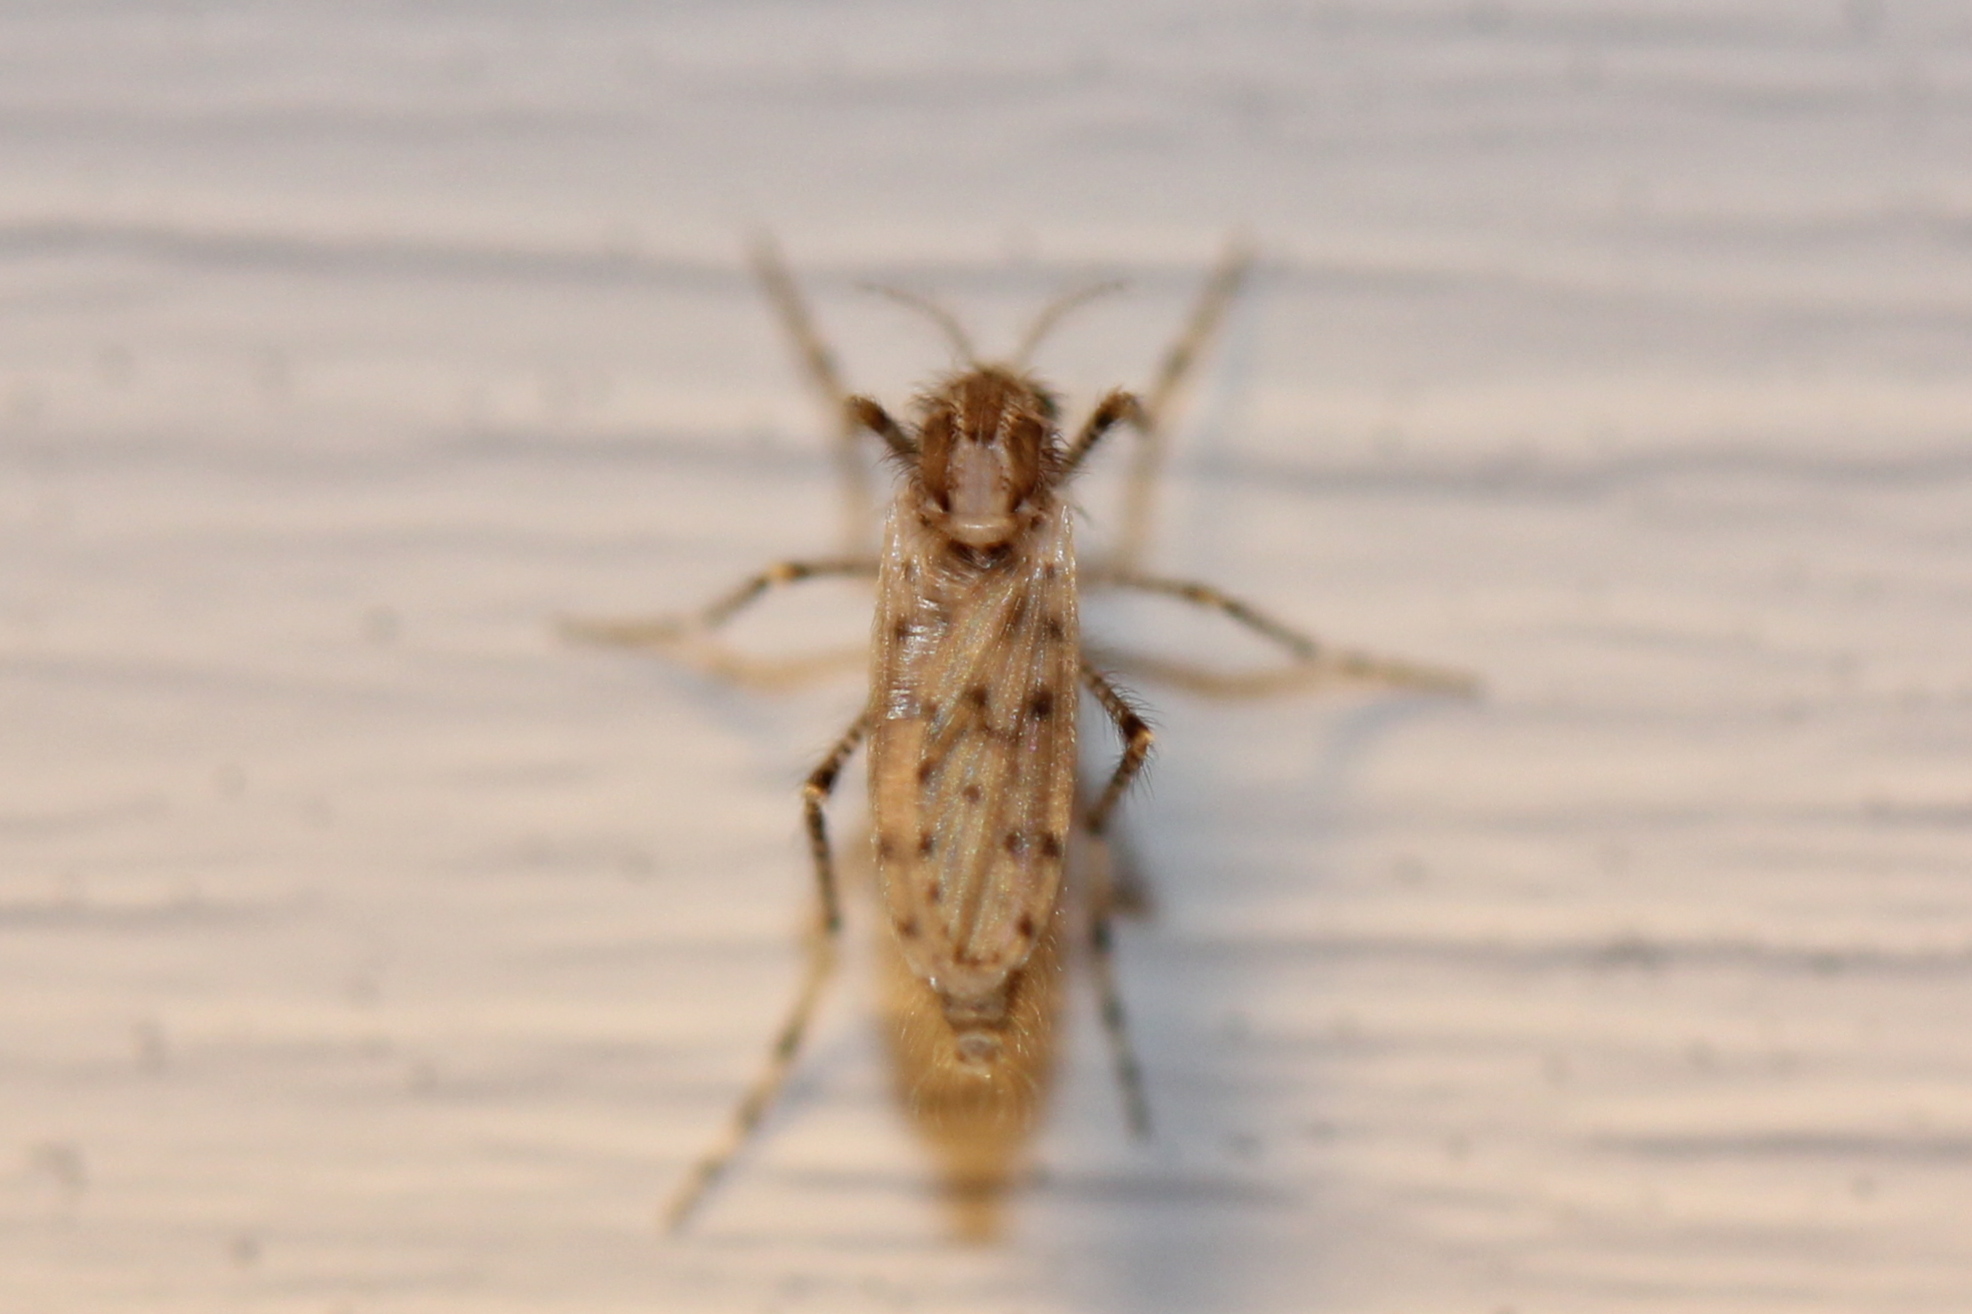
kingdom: Animalia
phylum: Arthropoda
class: Insecta
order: Diptera
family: Chaoboridae
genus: Chaoborus
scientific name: Chaoborus punctipennis
